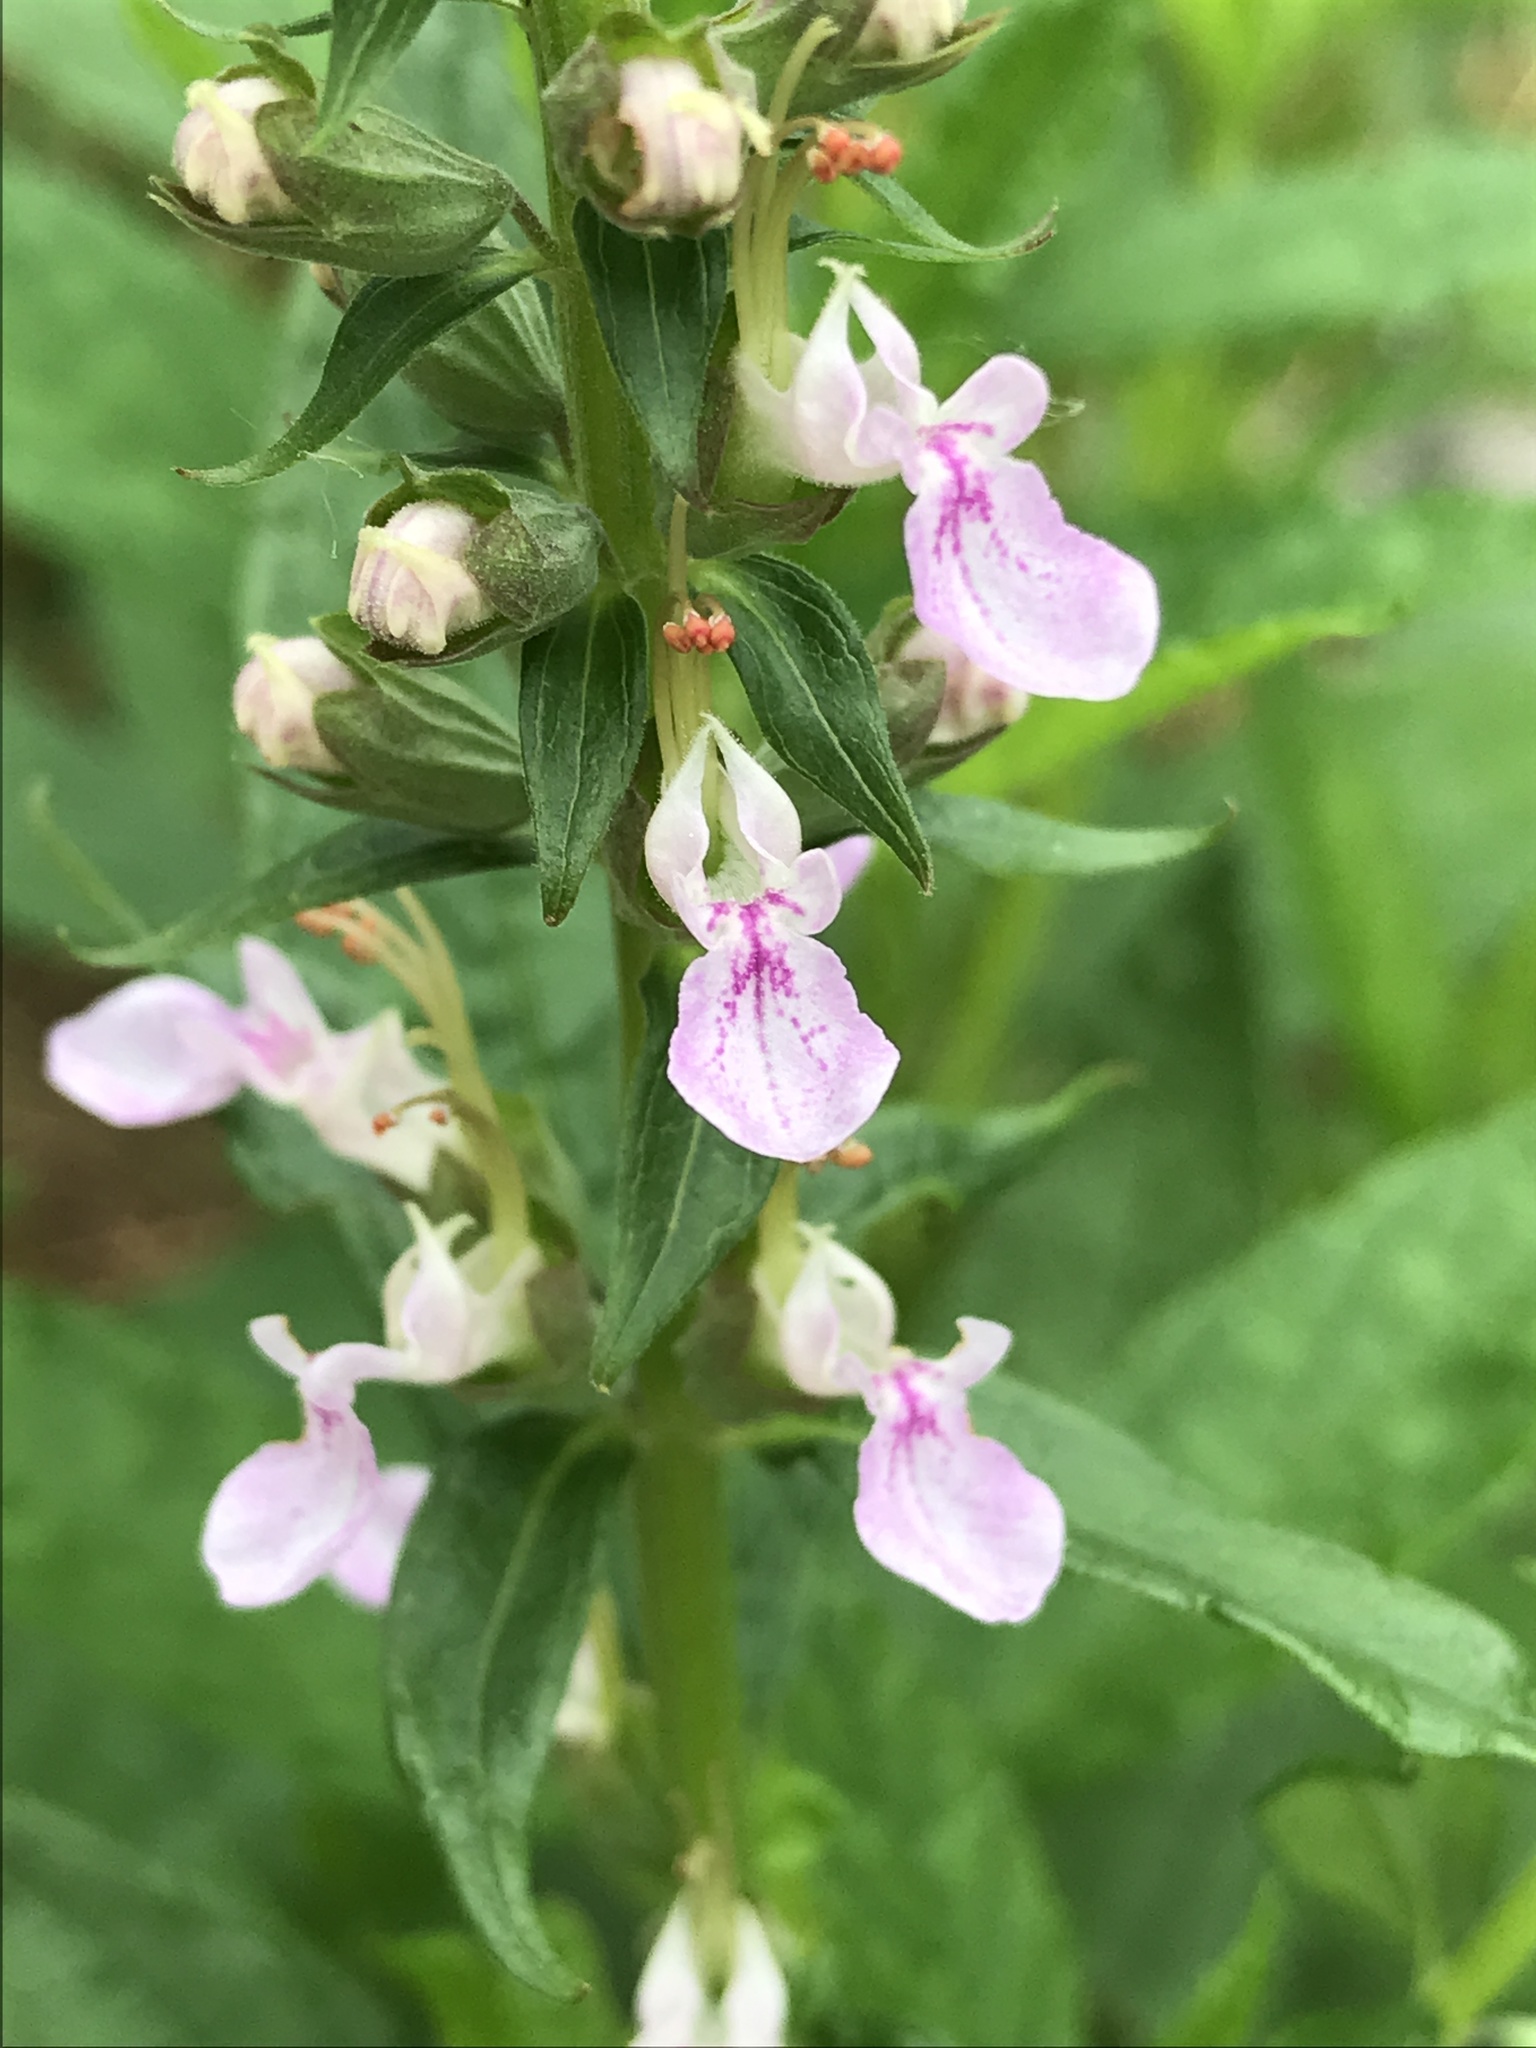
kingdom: Plantae
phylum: Tracheophyta
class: Magnoliopsida
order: Lamiales
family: Lamiaceae
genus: Teucrium
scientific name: Teucrium canadense
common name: American germander
